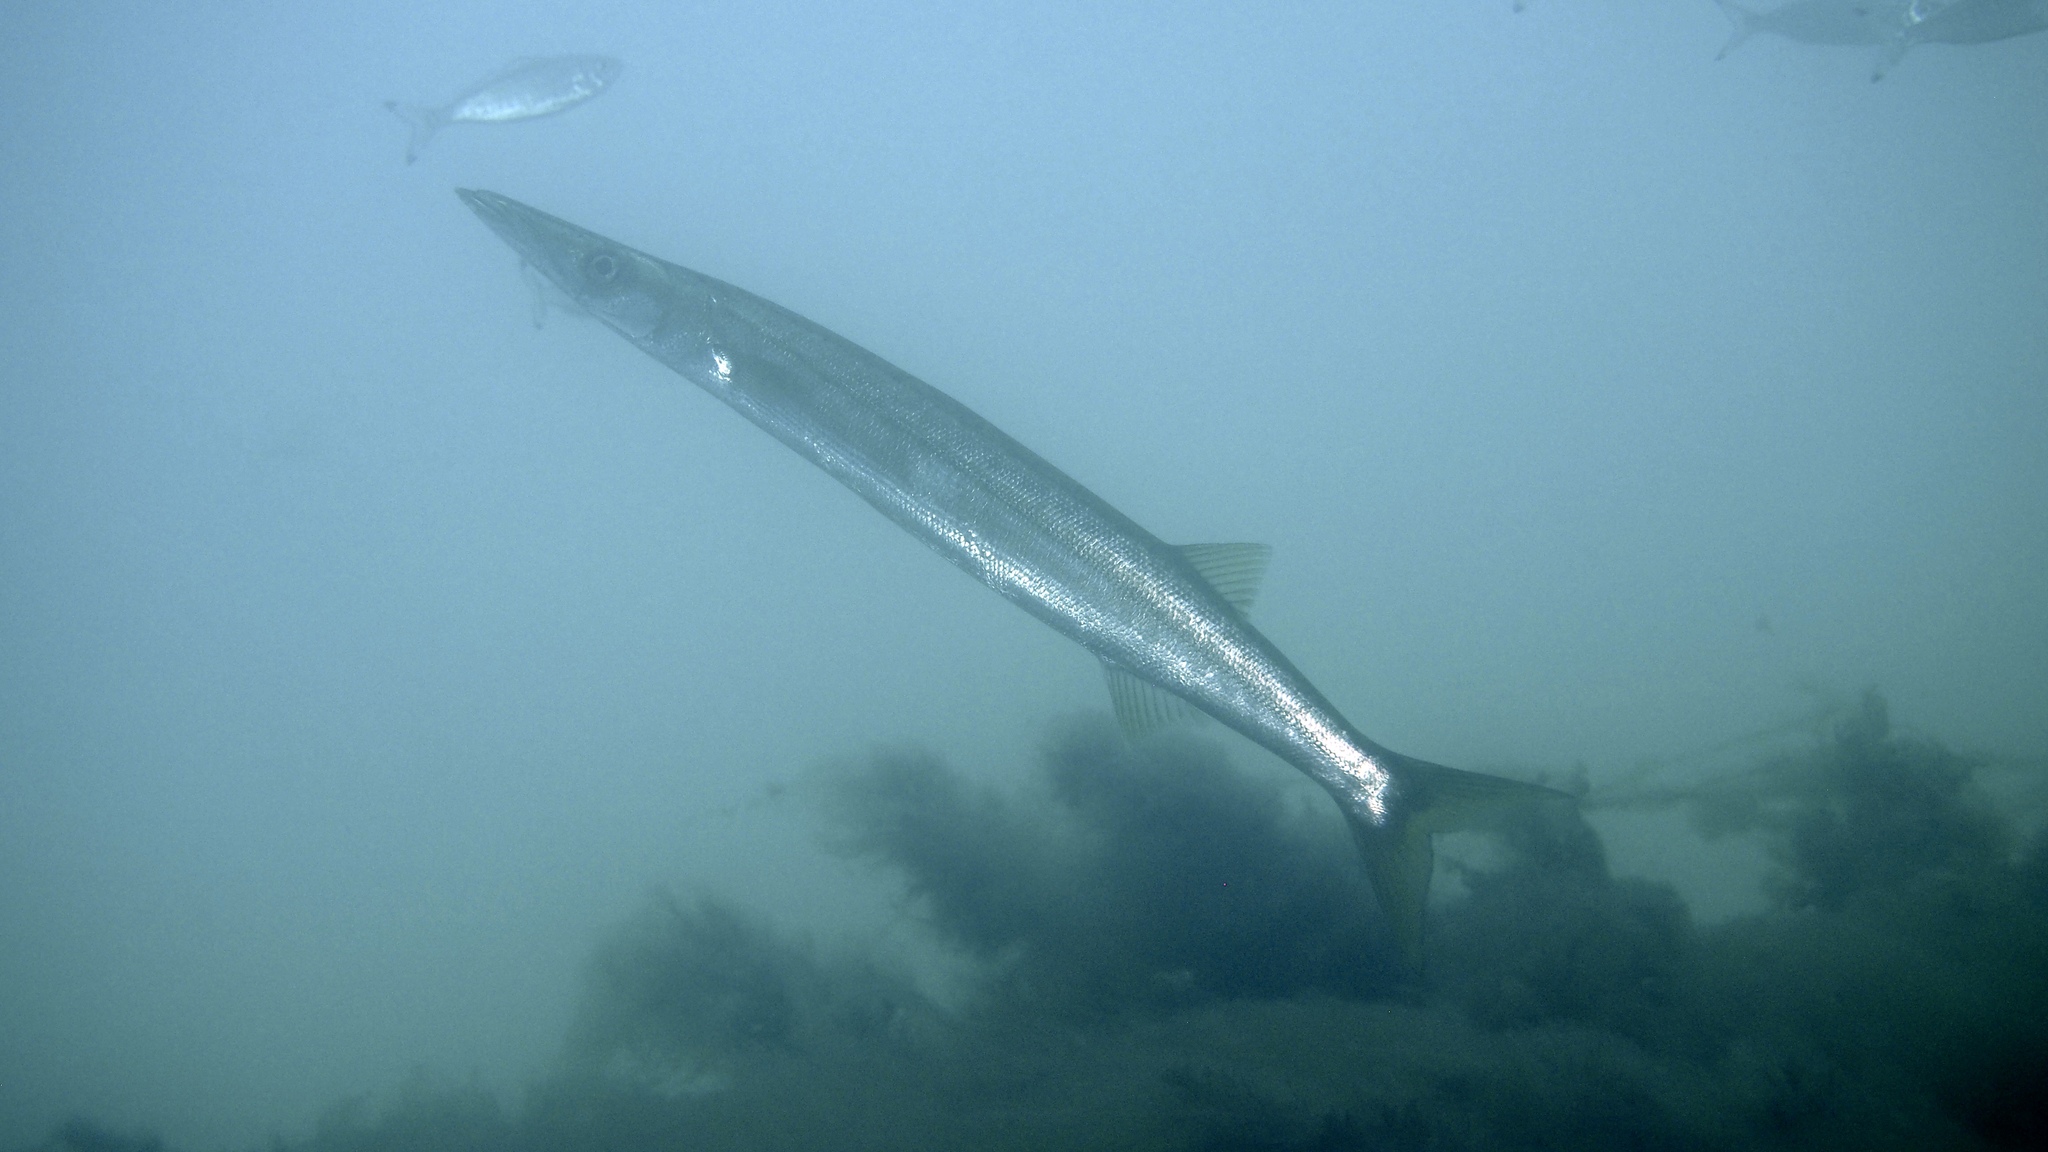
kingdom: Animalia
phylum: Chordata
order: Perciformes
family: Sphyraenidae
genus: Sphyraena
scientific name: Sphyraena novaehollandiae
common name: Arrow barracuda
